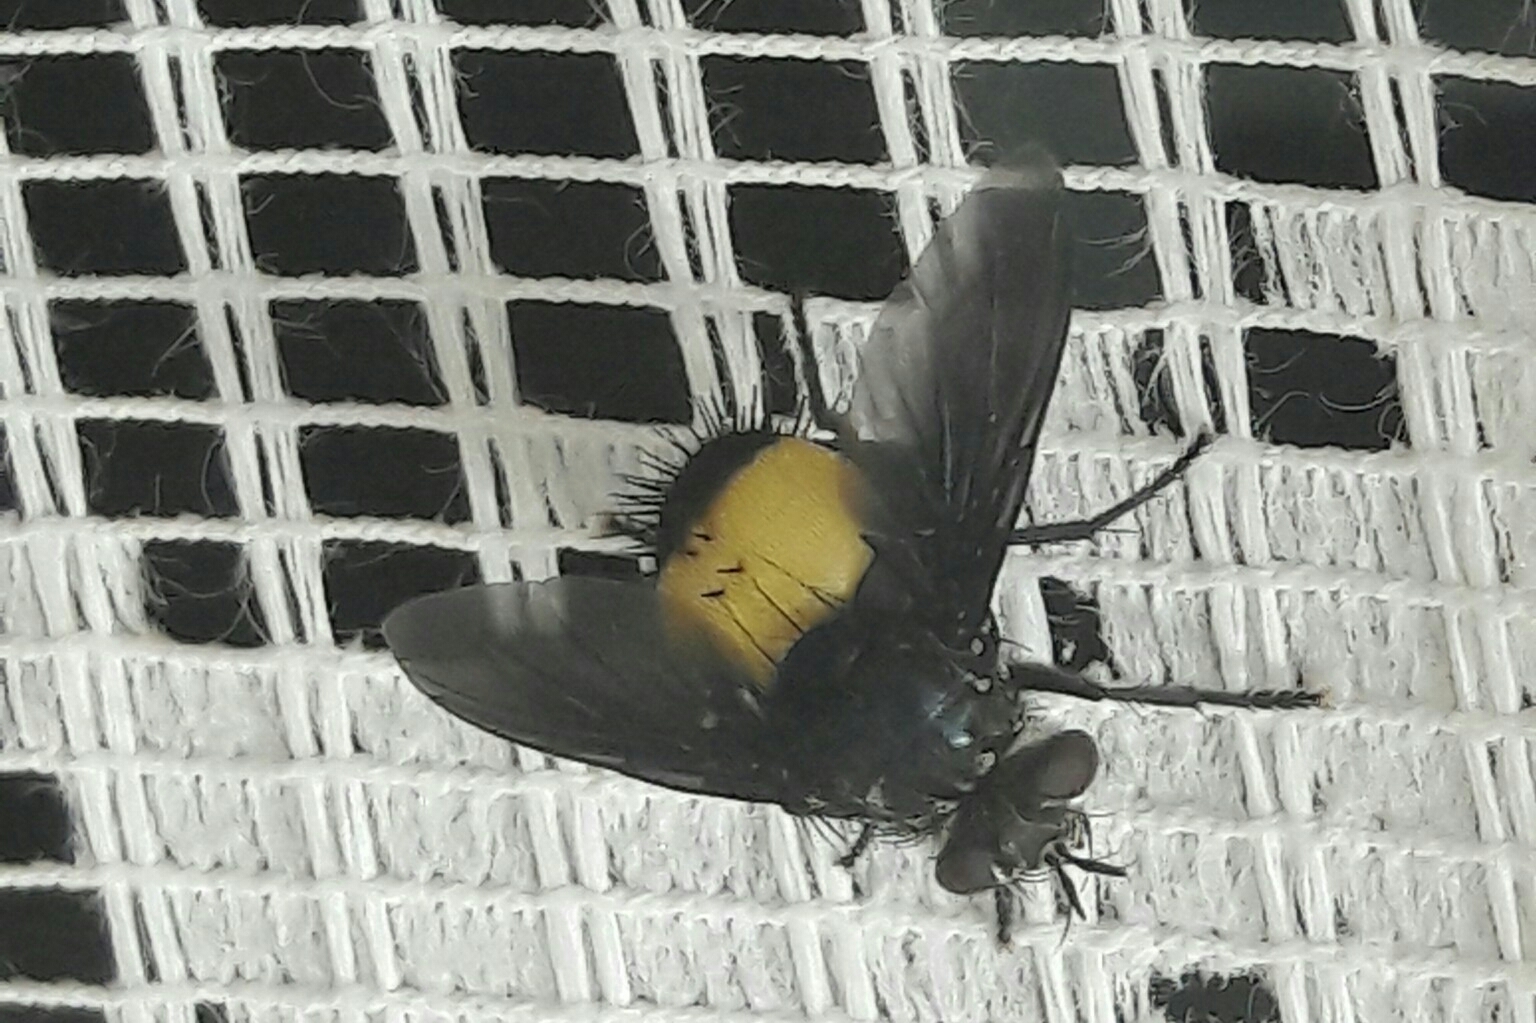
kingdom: Animalia
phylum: Arthropoda
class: Insecta
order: Diptera
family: Tachinidae
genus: Xanthozona
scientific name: Xanthozona melanopyga
